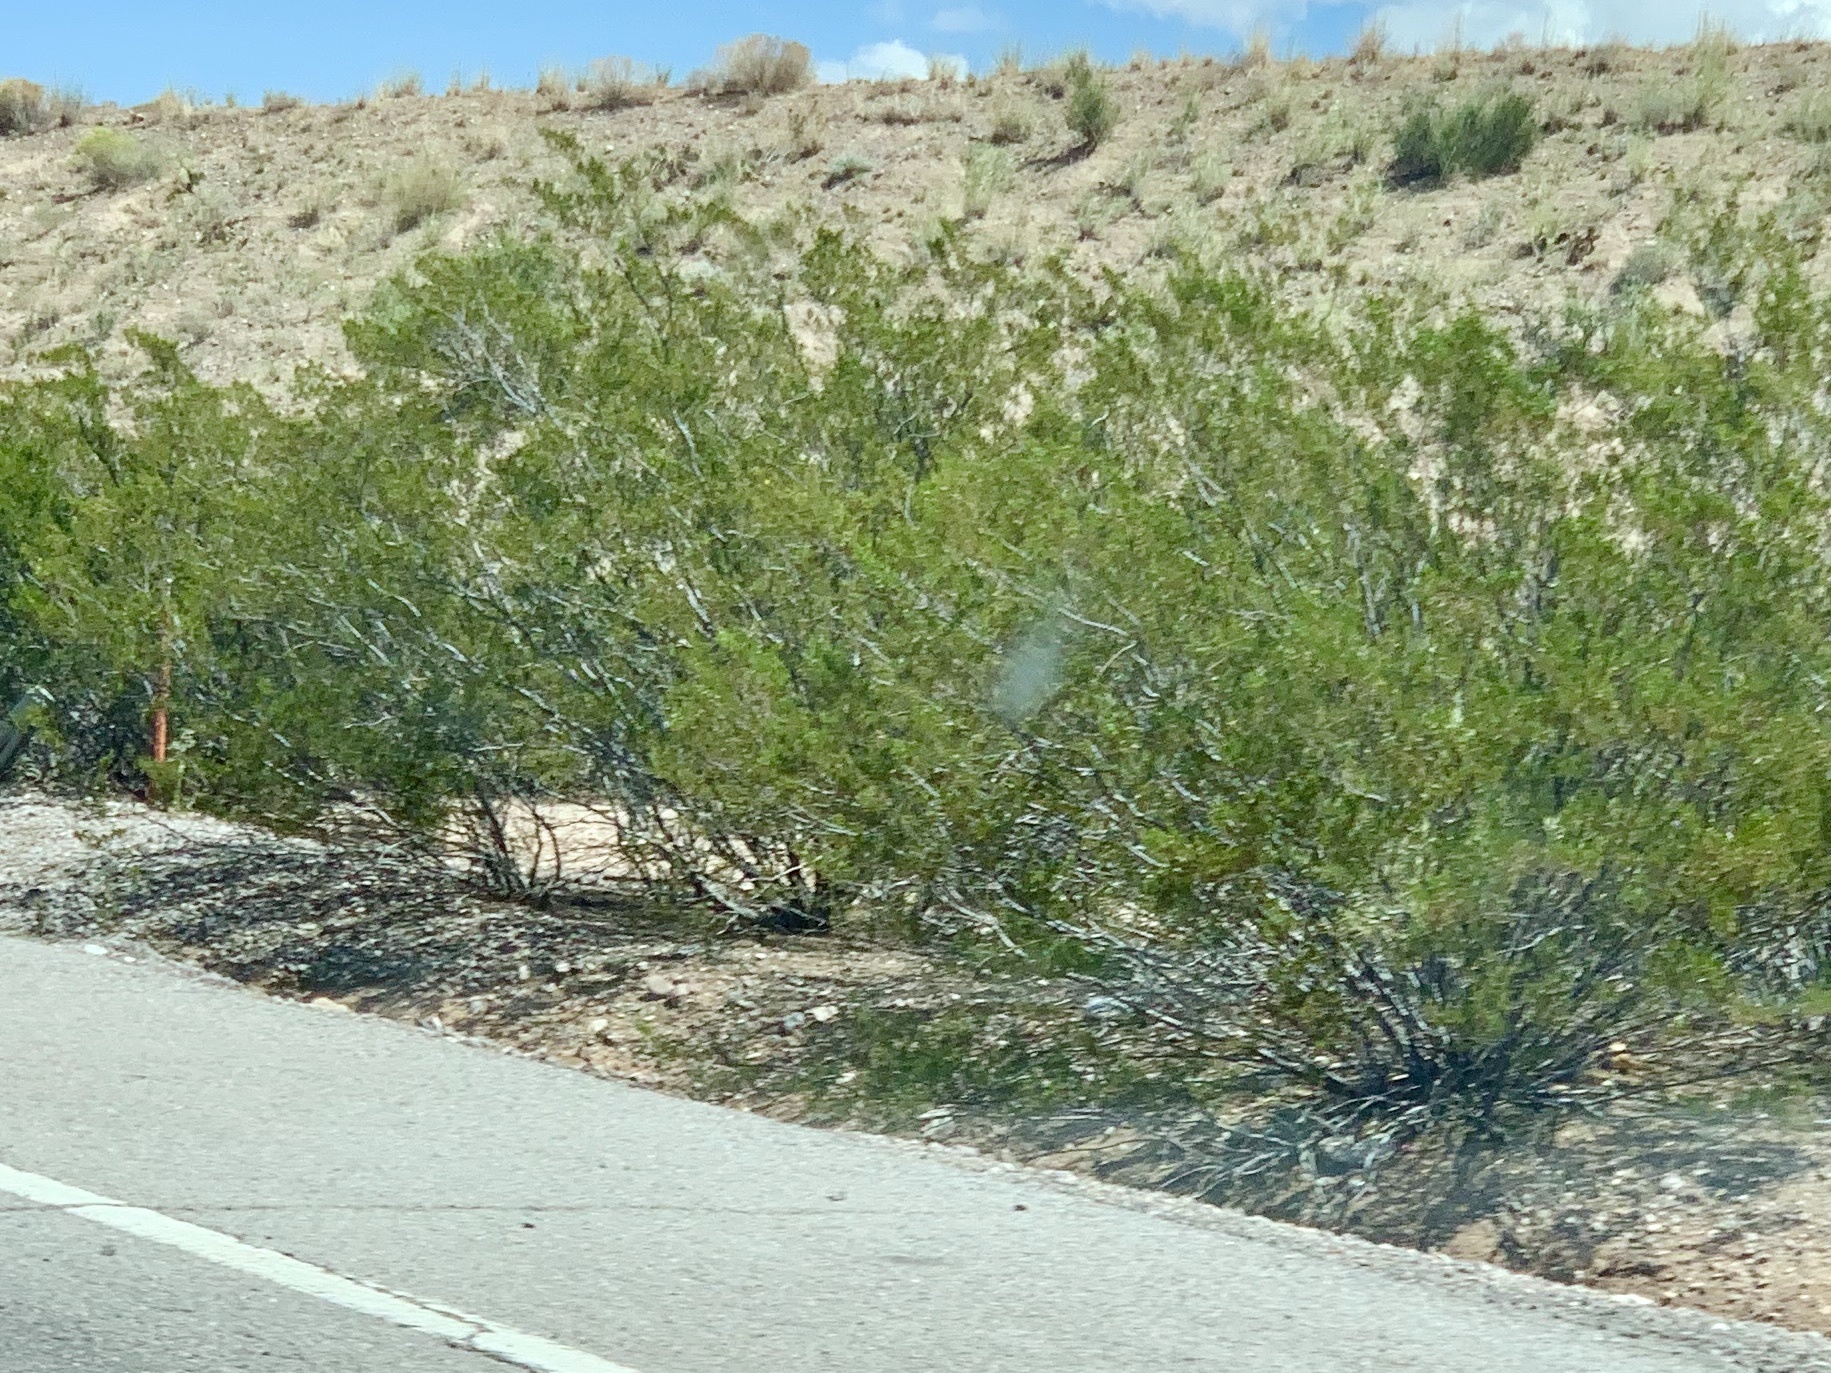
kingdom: Plantae
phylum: Tracheophyta
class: Magnoliopsida
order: Zygophyllales
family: Zygophyllaceae
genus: Larrea
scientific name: Larrea tridentata
